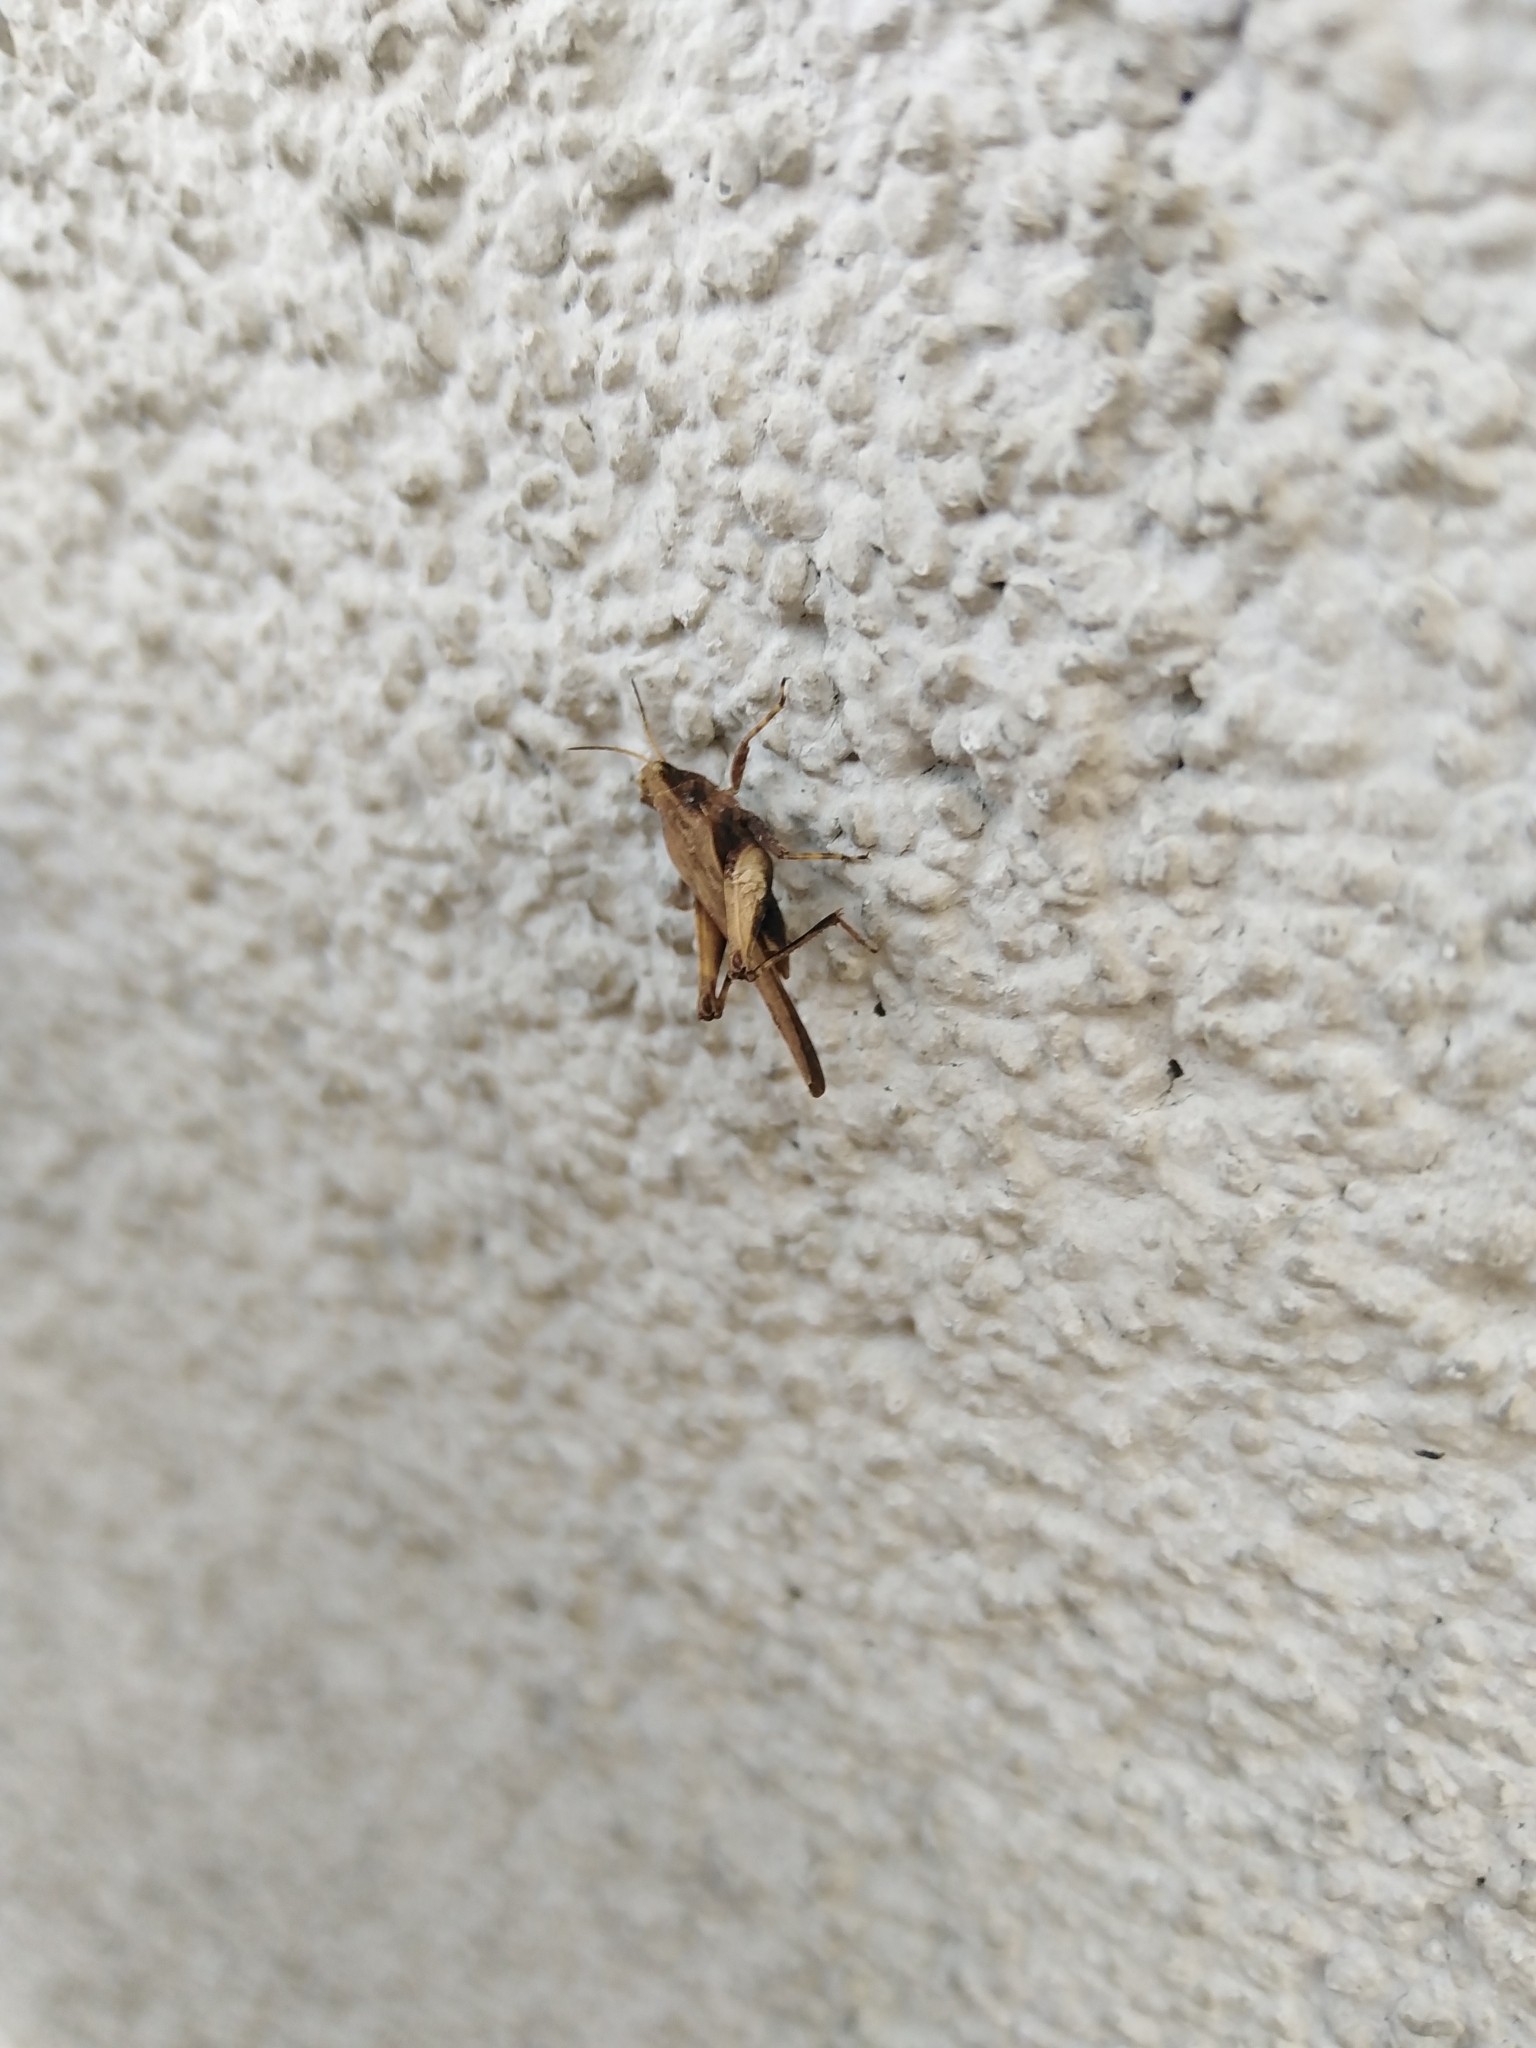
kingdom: Animalia
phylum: Arthropoda
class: Insecta
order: Orthoptera
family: Tetrigidae
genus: Tetrix
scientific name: Tetrix subulata
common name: Slender ground-hopper
